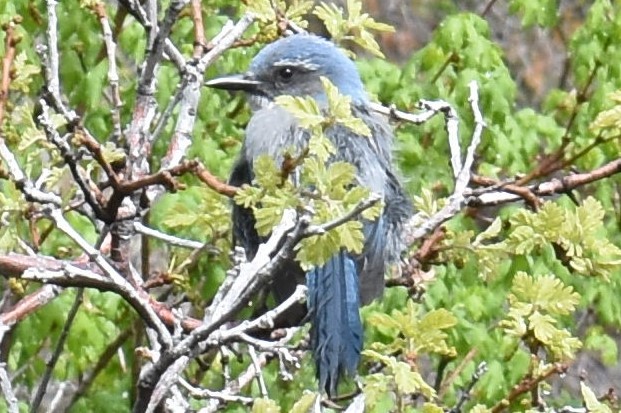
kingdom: Animalia
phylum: Chordata
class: Aves
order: Passeriformes
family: Corvidae
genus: Aphelocoma
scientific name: Aphelocoma woodhouseii
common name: Woodhouse's scrub-jay
